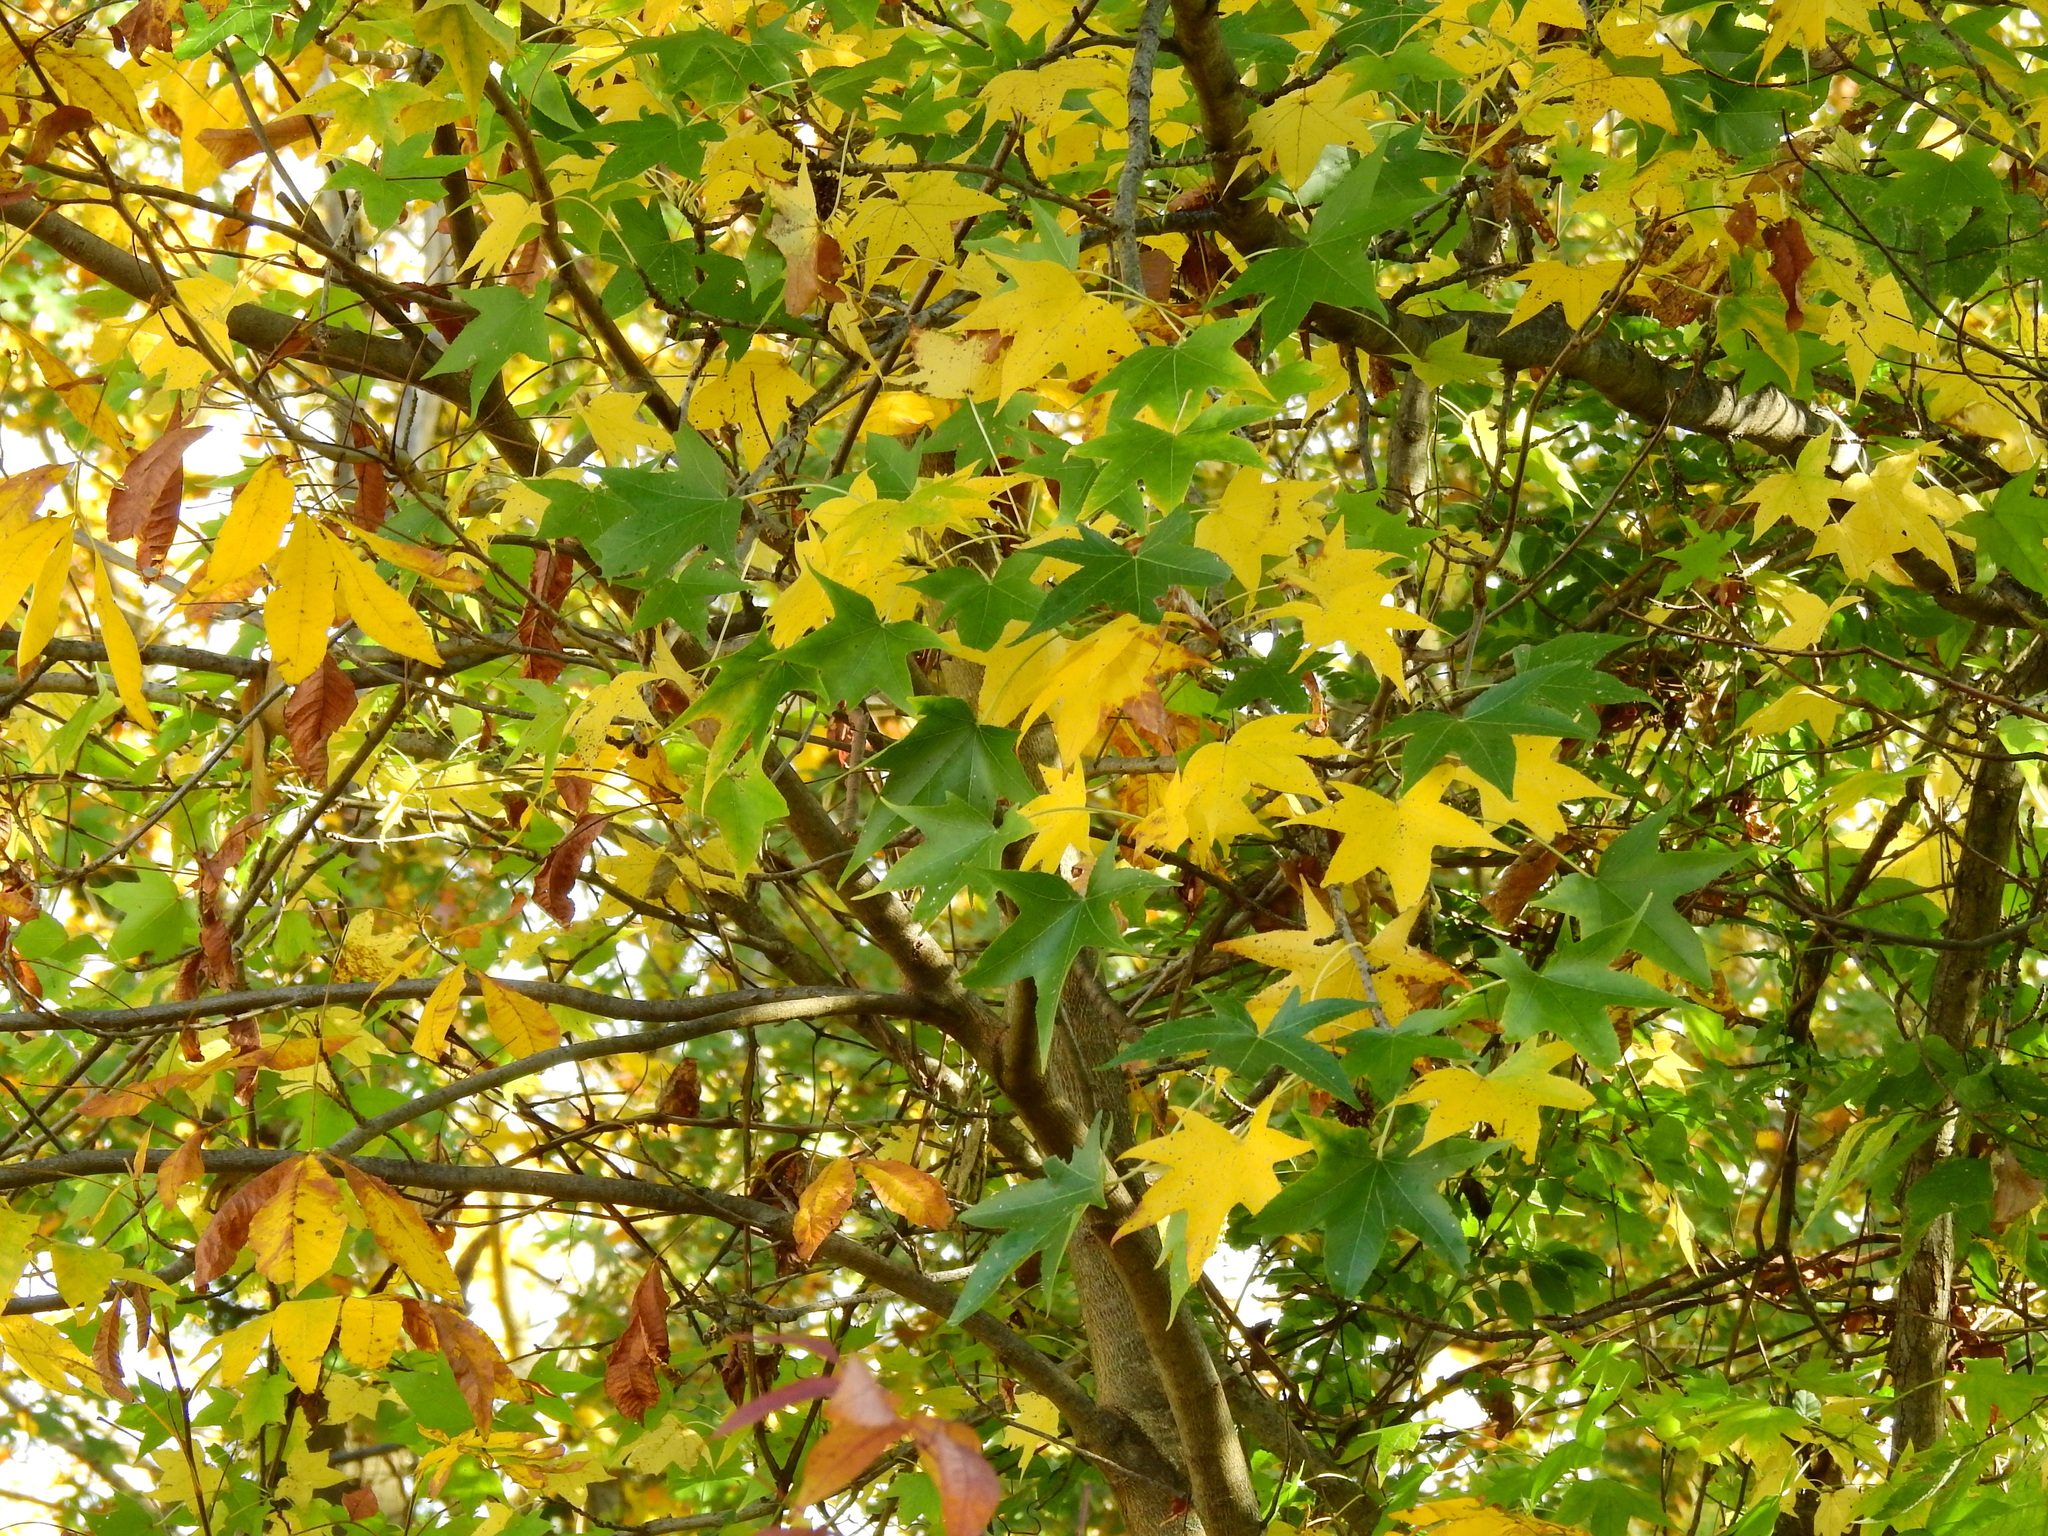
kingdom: Plantae
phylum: Tracheophyta
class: Magnoliopsida
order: Saxifragales
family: Altingiaceae
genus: Liquidambar
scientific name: Liquidambar styraciflua
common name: Sweet gum
